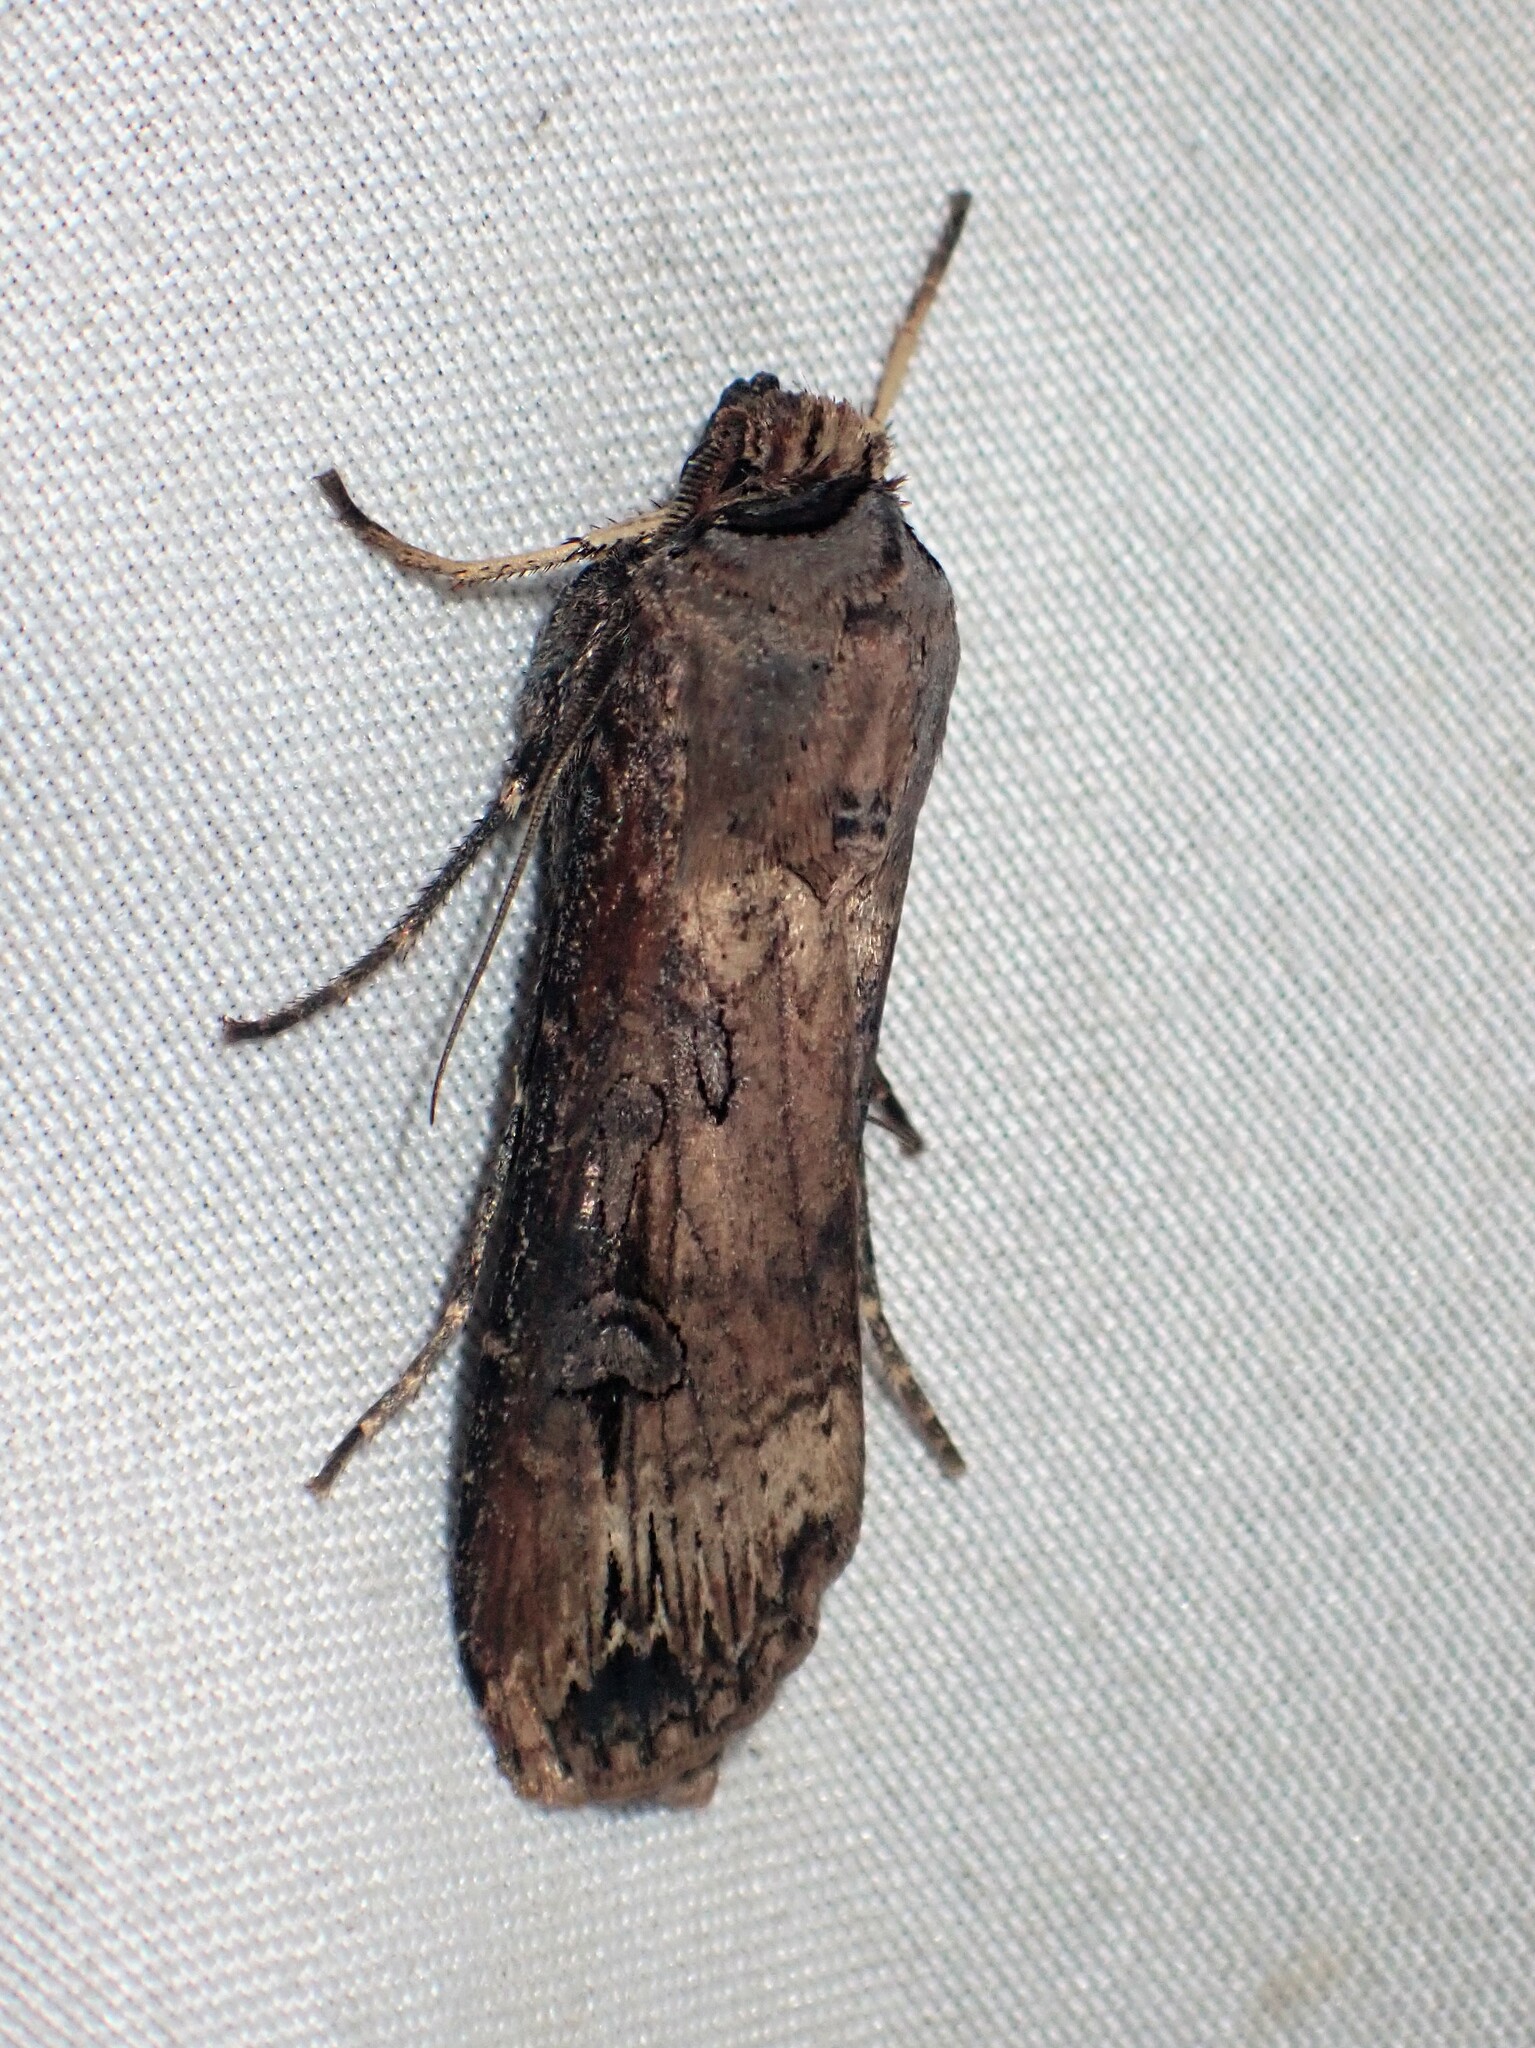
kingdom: Animalia
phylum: Arthropoda
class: Insecta
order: Lepidoptera
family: Noctuidae
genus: Agrotis
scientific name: Agrotis ipsilon
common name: Dark sword-grass
